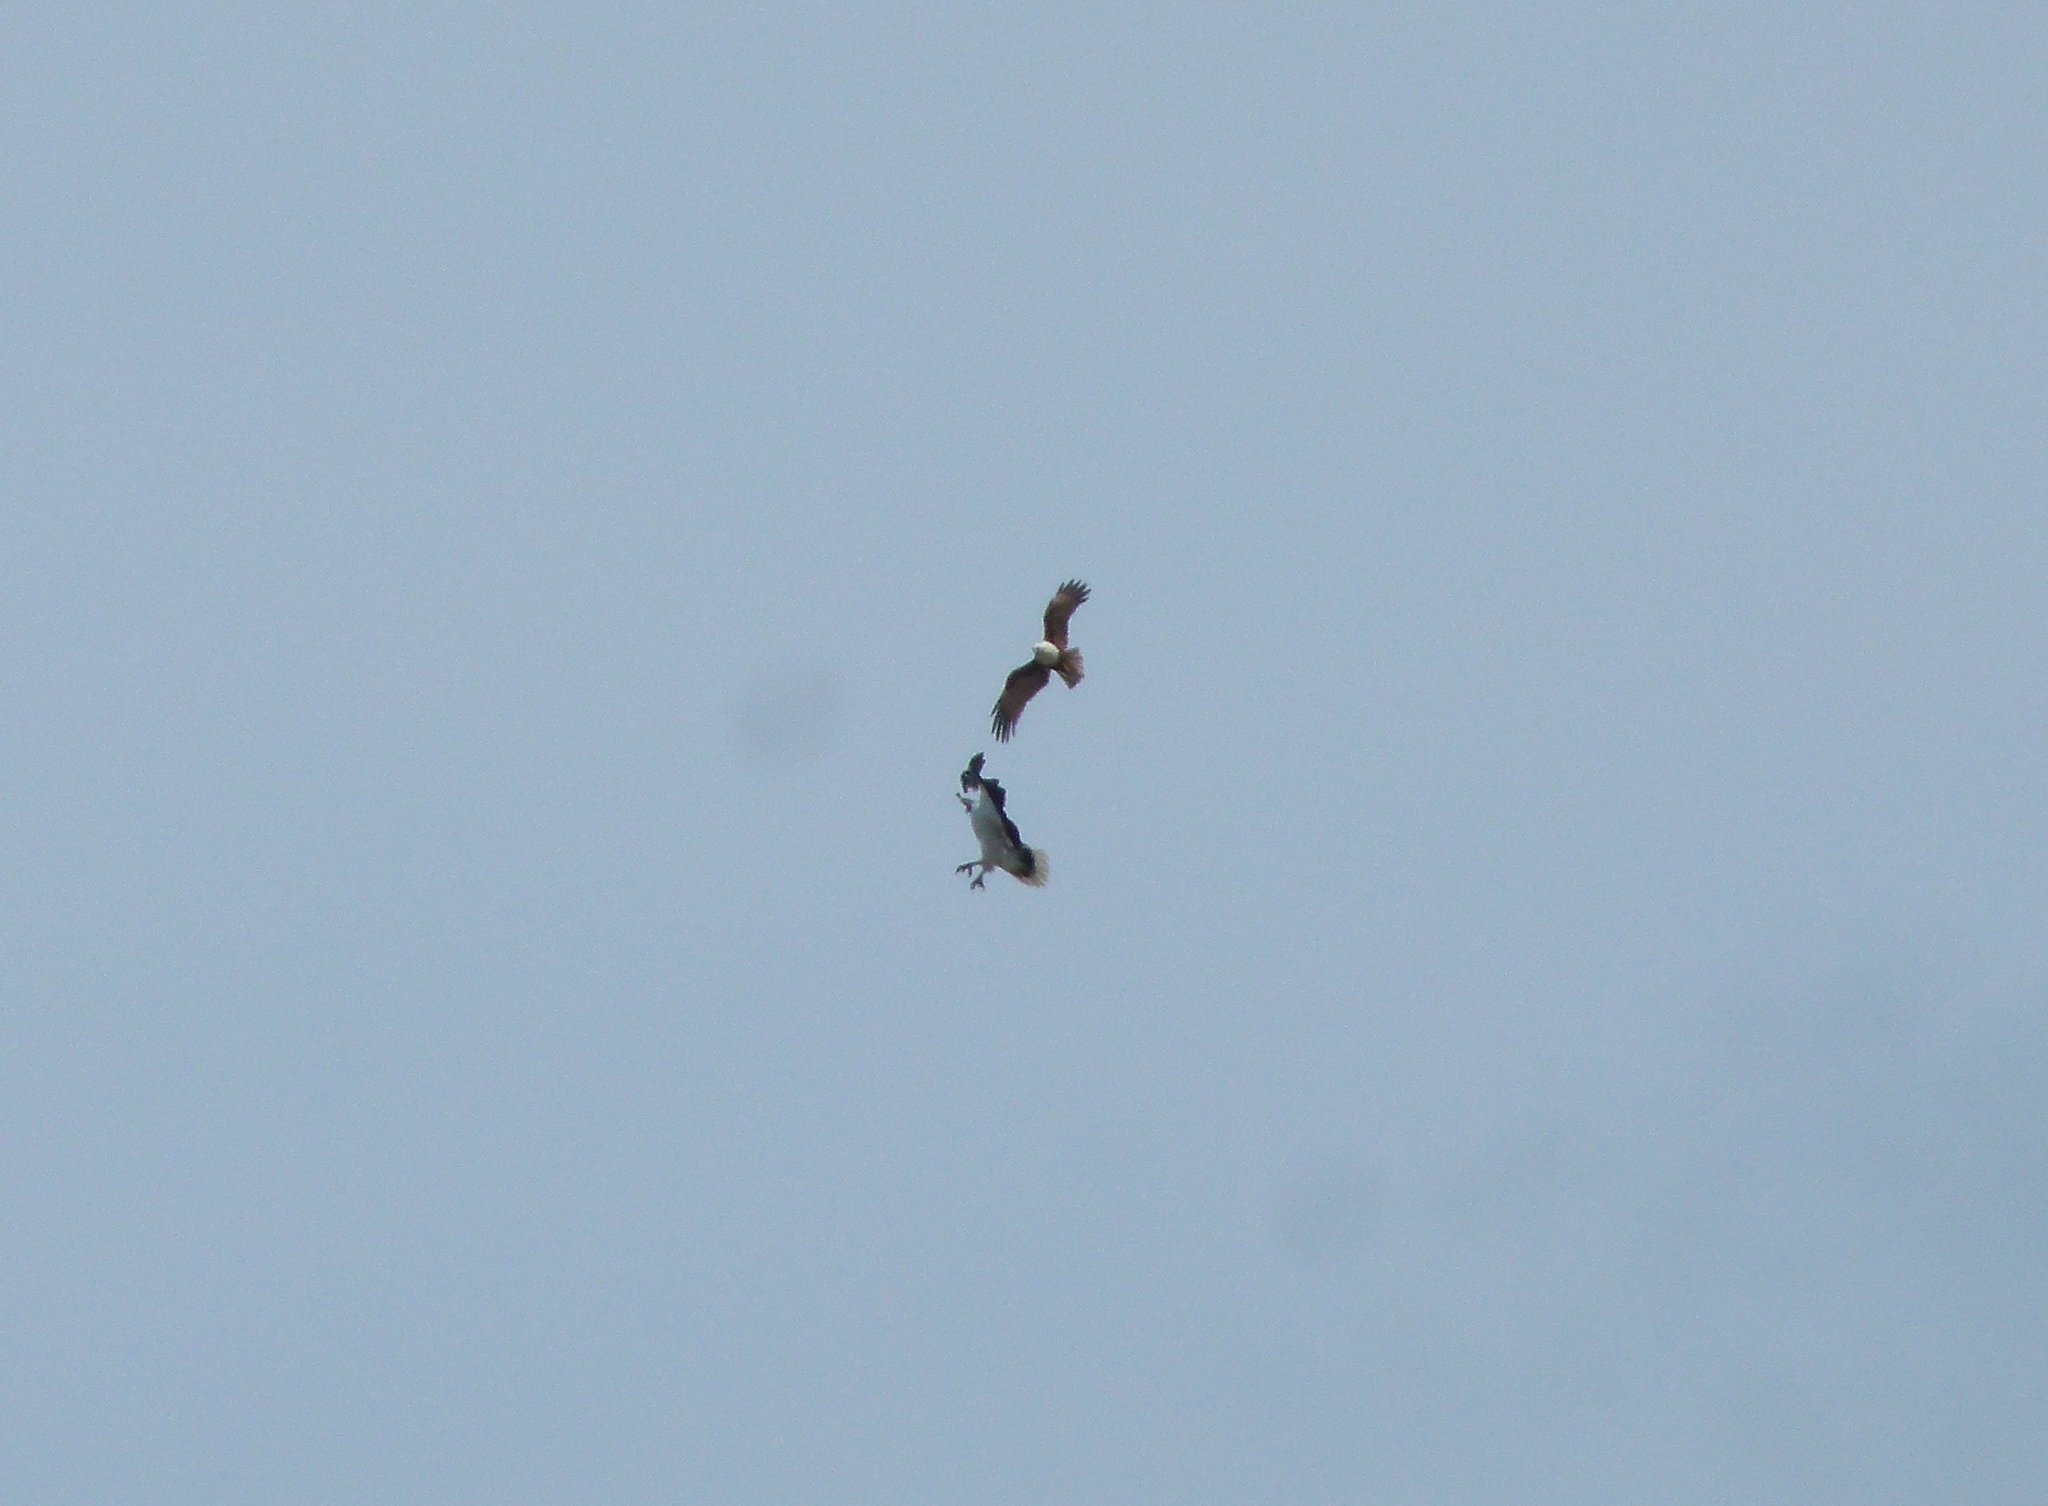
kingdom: Animalia
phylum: Chordata
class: Aves
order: Accipitriformes
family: Accipitridae
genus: Haliastur
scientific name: Haliastur indus
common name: Brahminy kite
